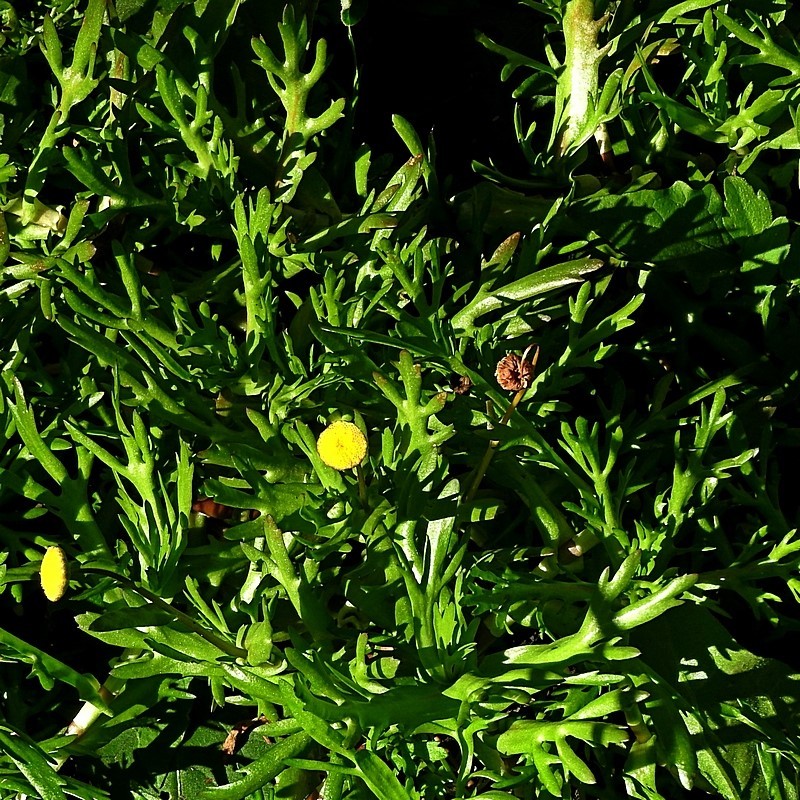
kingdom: Plantae
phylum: Tracheophyta
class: Magnoliopsida
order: Asterales
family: Asteraceae
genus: Cotula
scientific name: Cotula coronopifolia
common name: Buttonweed
